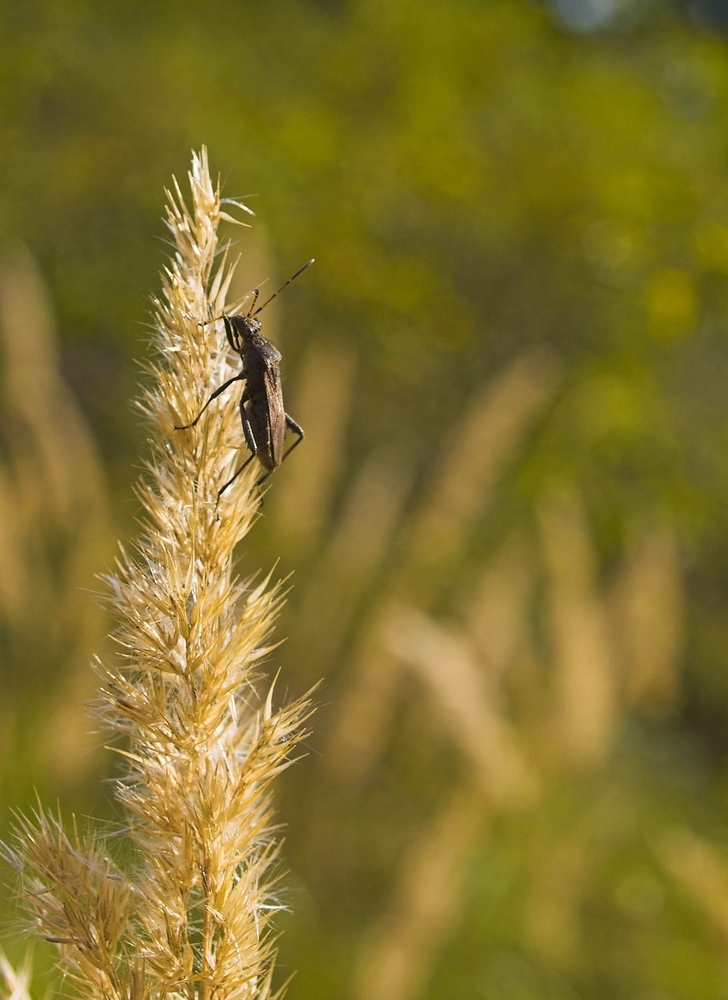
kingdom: Animalia
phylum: Arthropoda
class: Insecta
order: Hemiptera
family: Alydidae
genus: Alydus
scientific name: Alydus calcaratus
